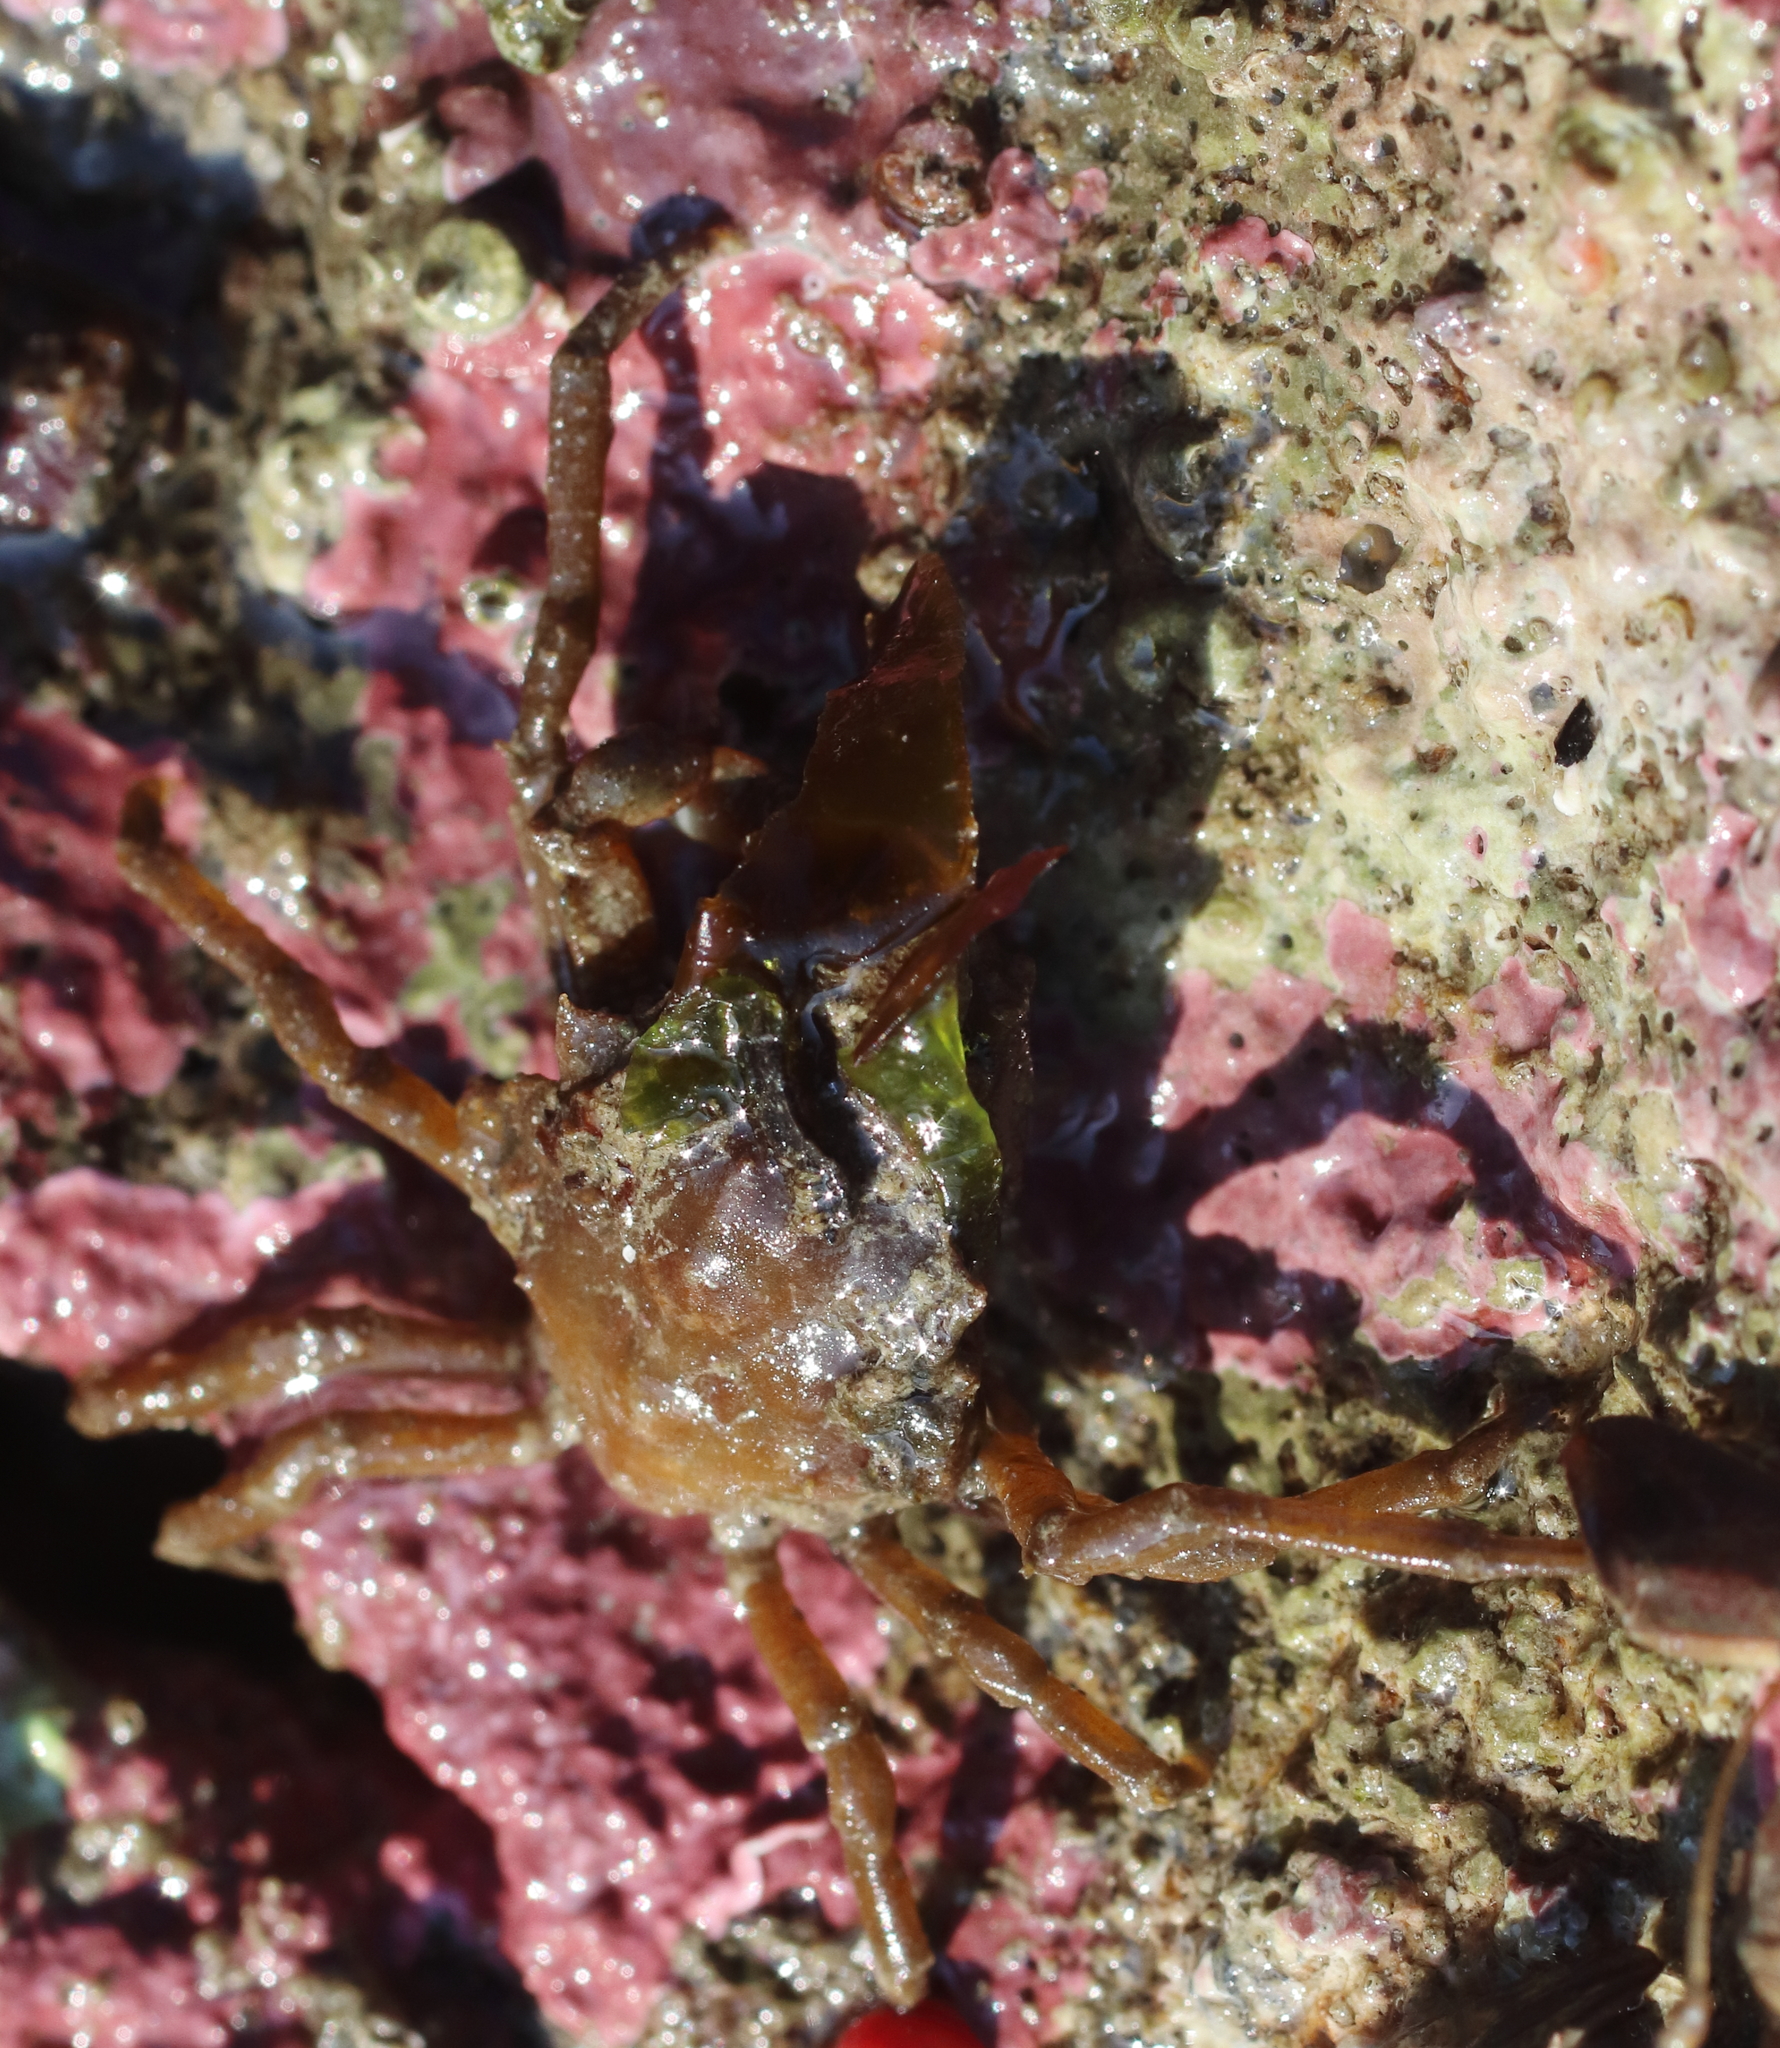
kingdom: Animalia
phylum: Arthropoda
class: Malacostraca
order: Decapoda
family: Epialtidae
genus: Pugettia
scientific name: Pugettia gracilis
